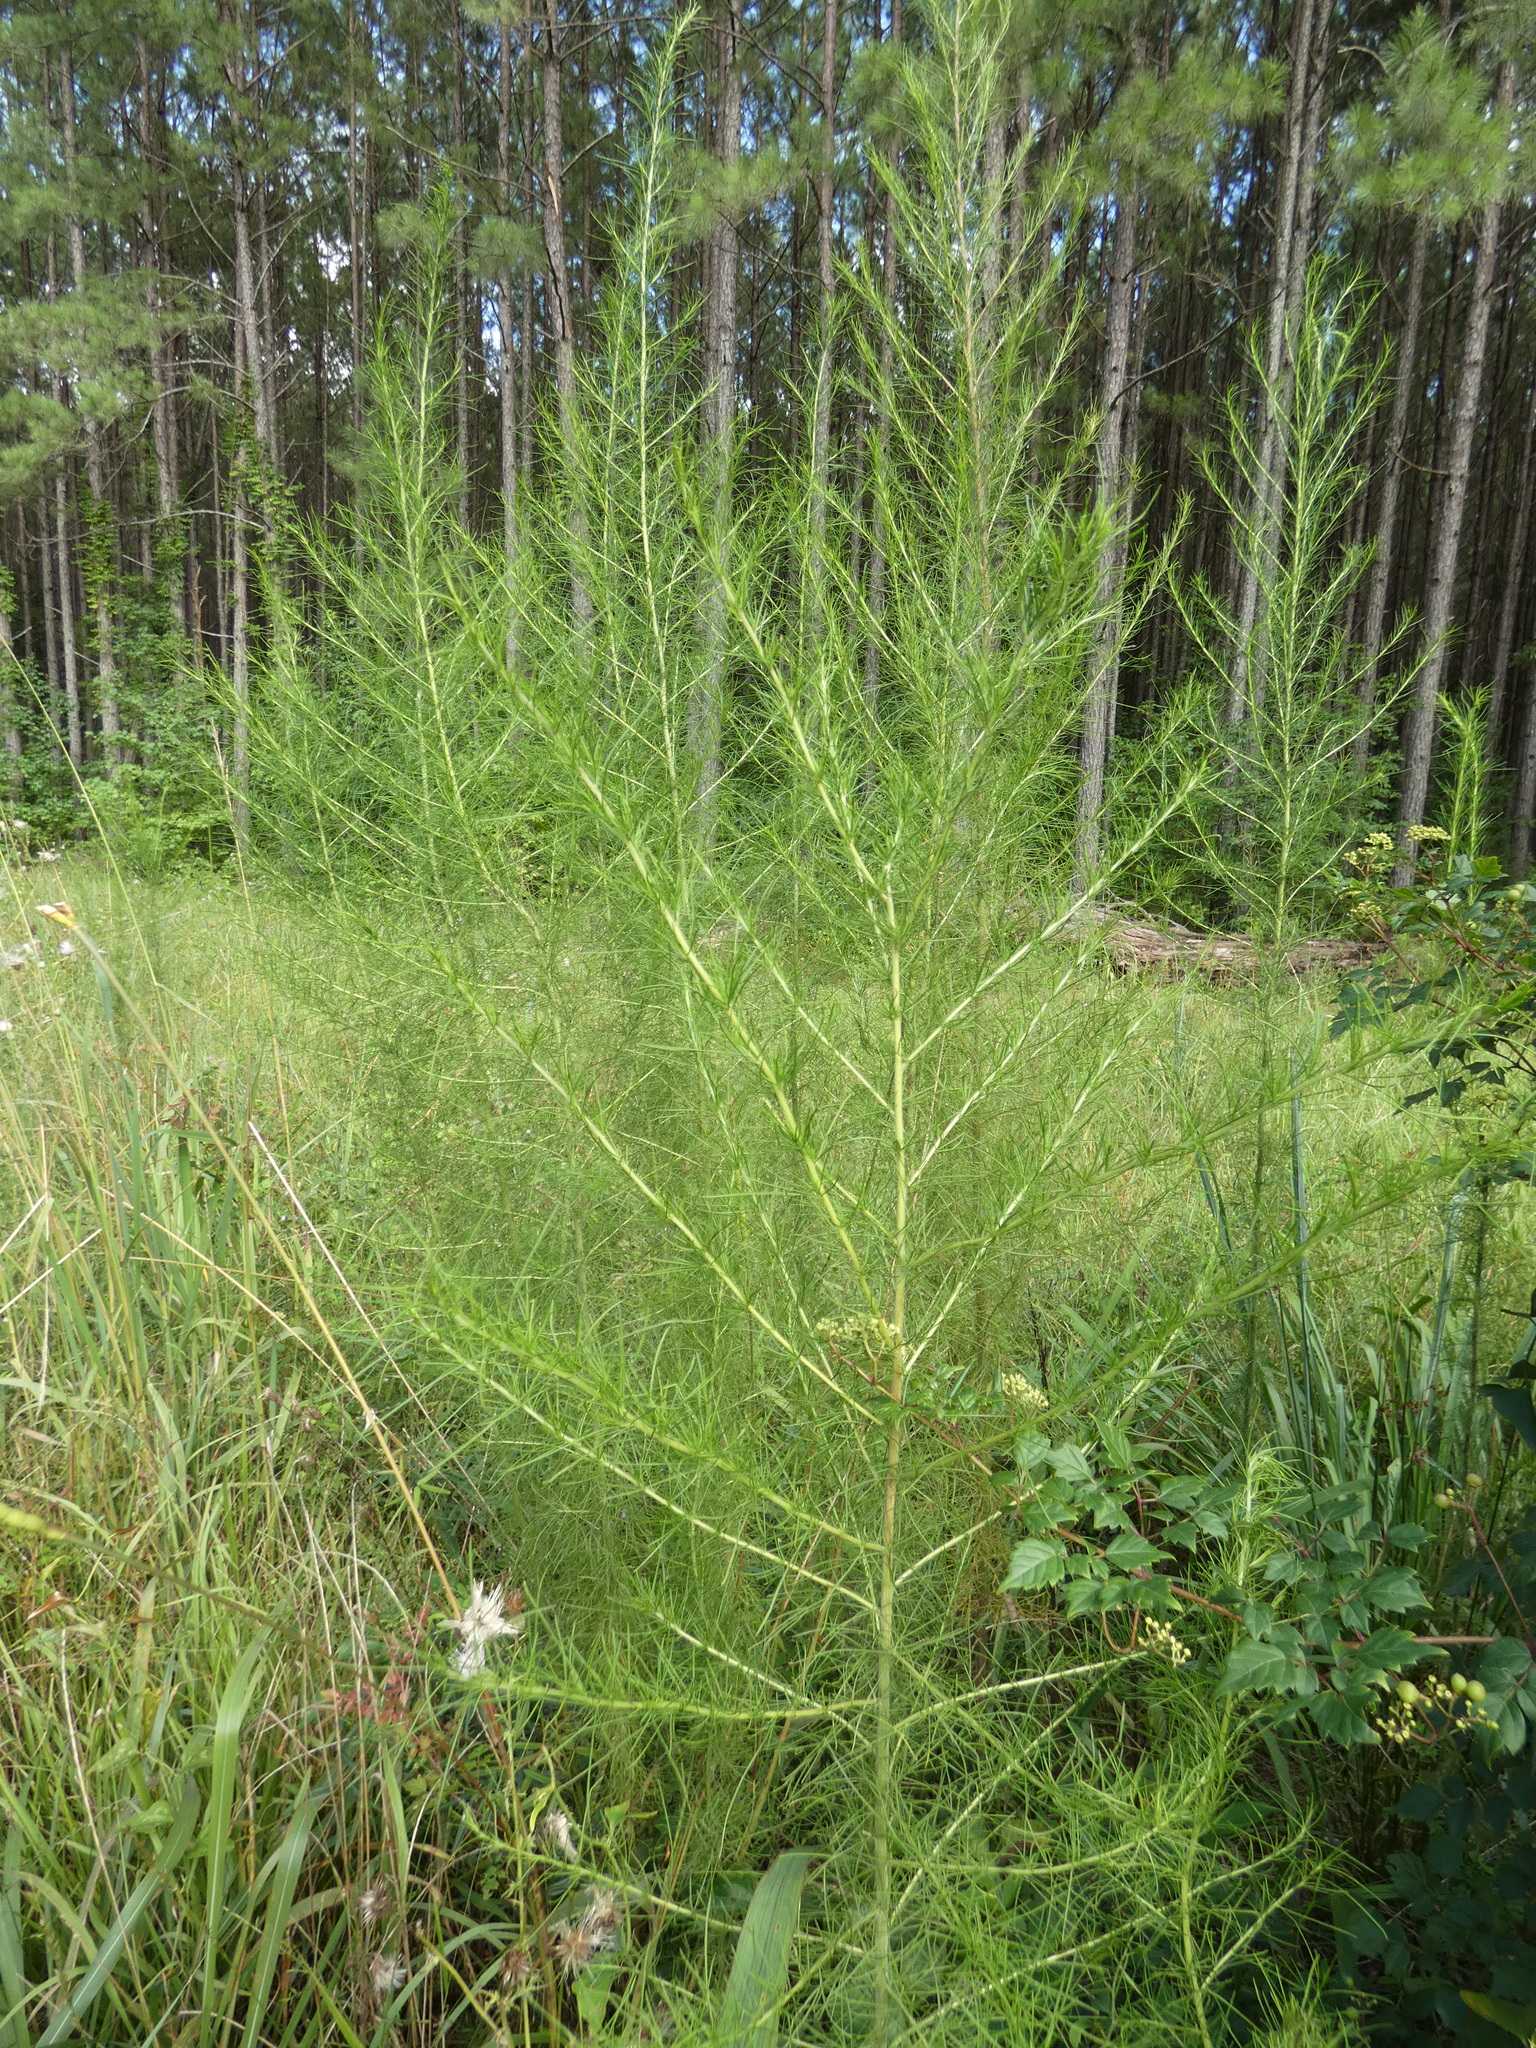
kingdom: Plantae
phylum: Tracheophyta
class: Magnoliopsida
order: Asterales
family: Asteraceae
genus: Eupatorium
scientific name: Eupatorium capillifolium
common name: Dog-fennel
